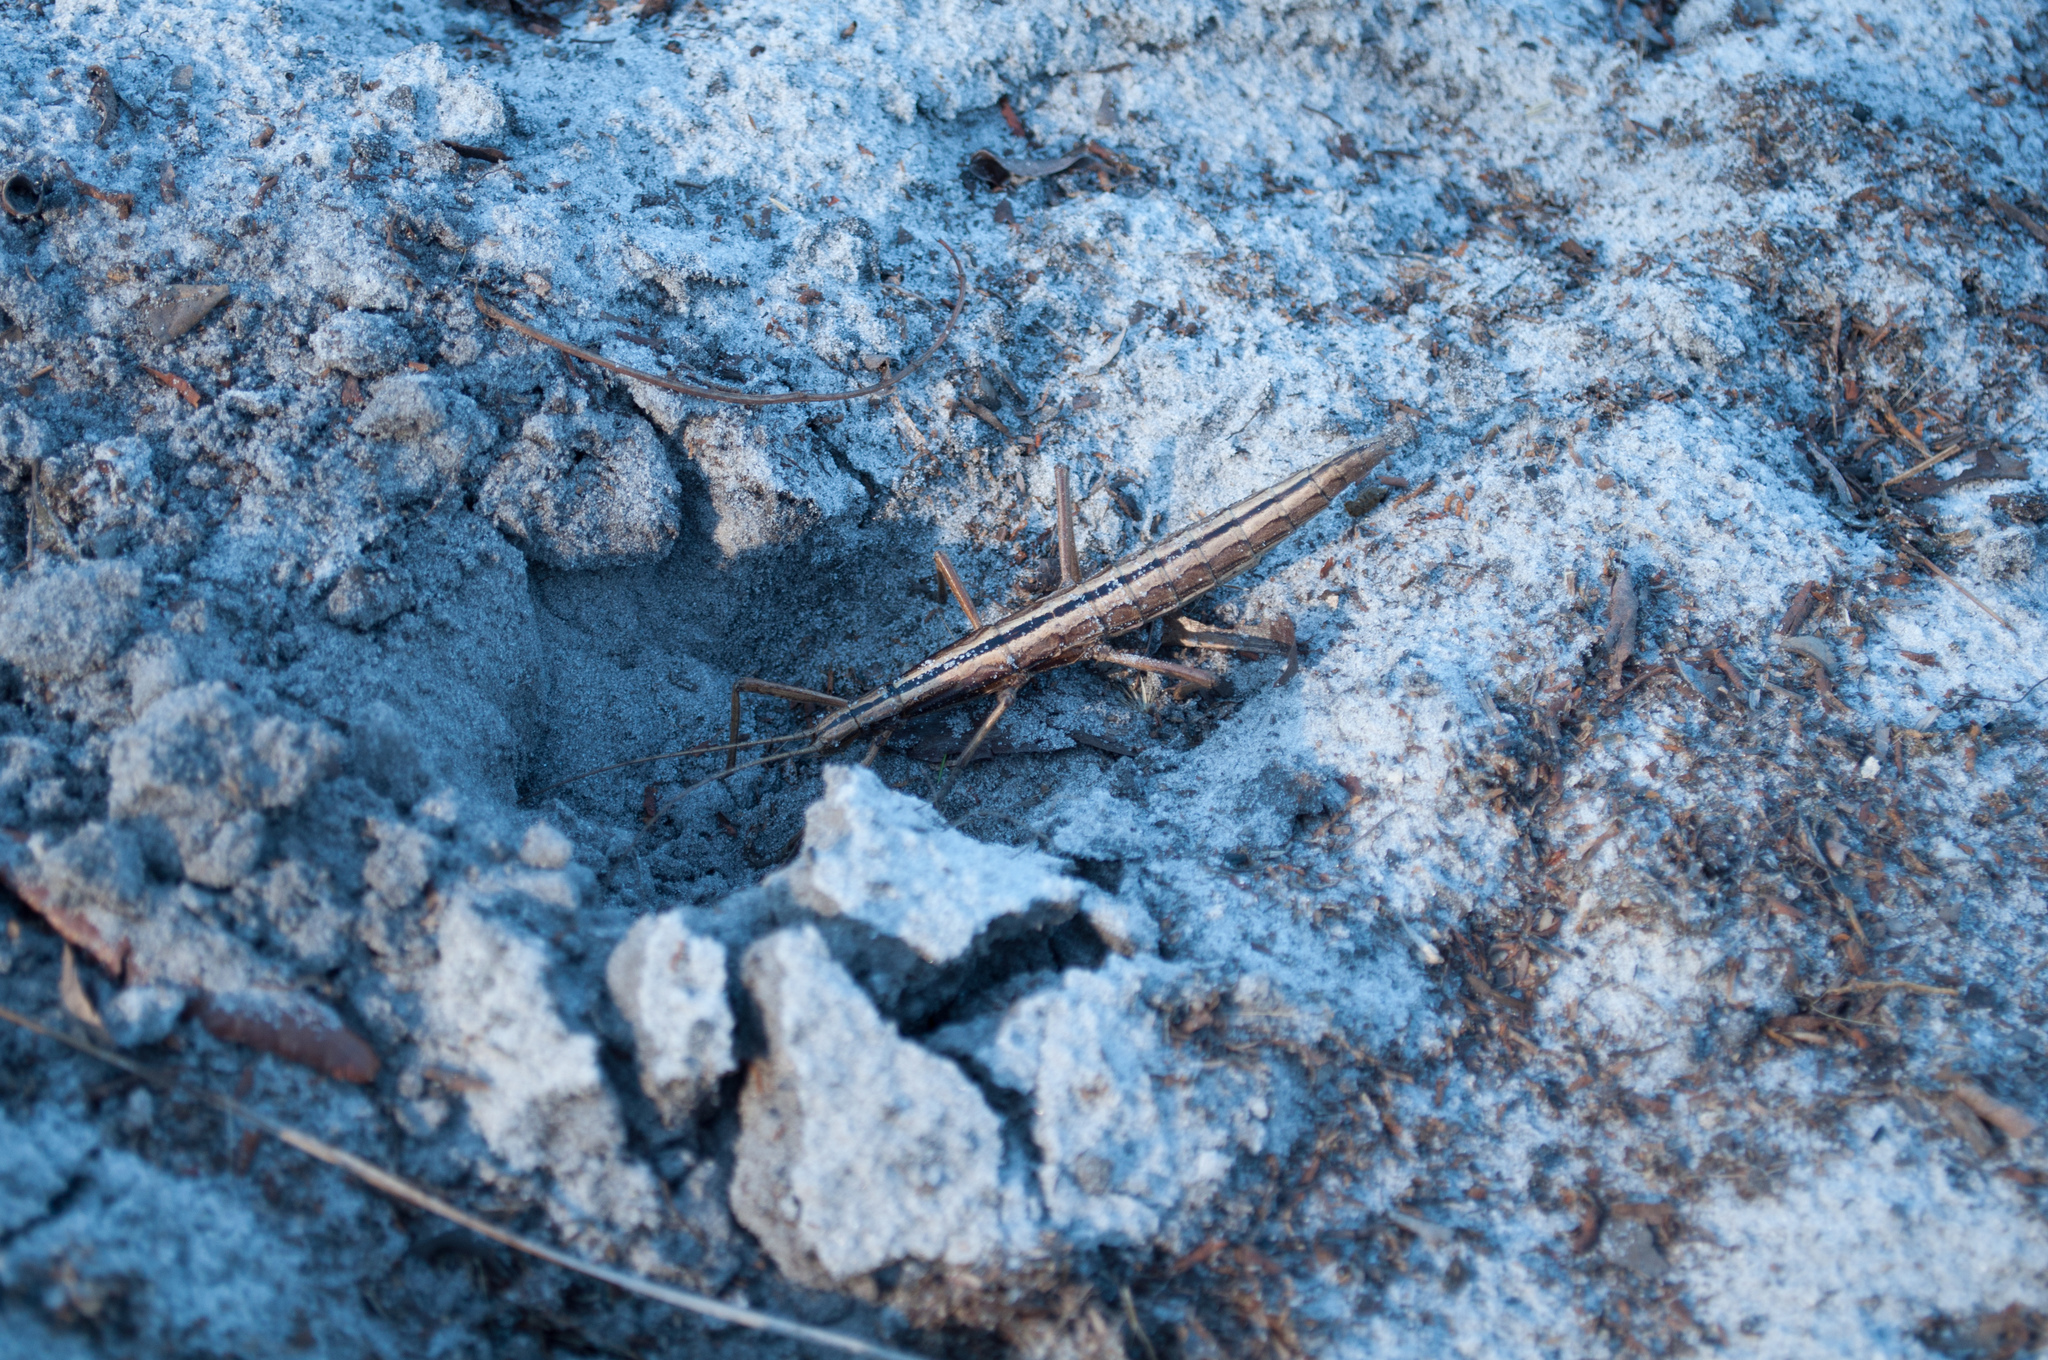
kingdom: Animalia
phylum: Arthropoda
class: Insecta
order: Phasmida
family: Pseudophasmatidae
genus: Anisomorpha
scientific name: Anisomorpha buprestoides
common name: Florida stick insect
